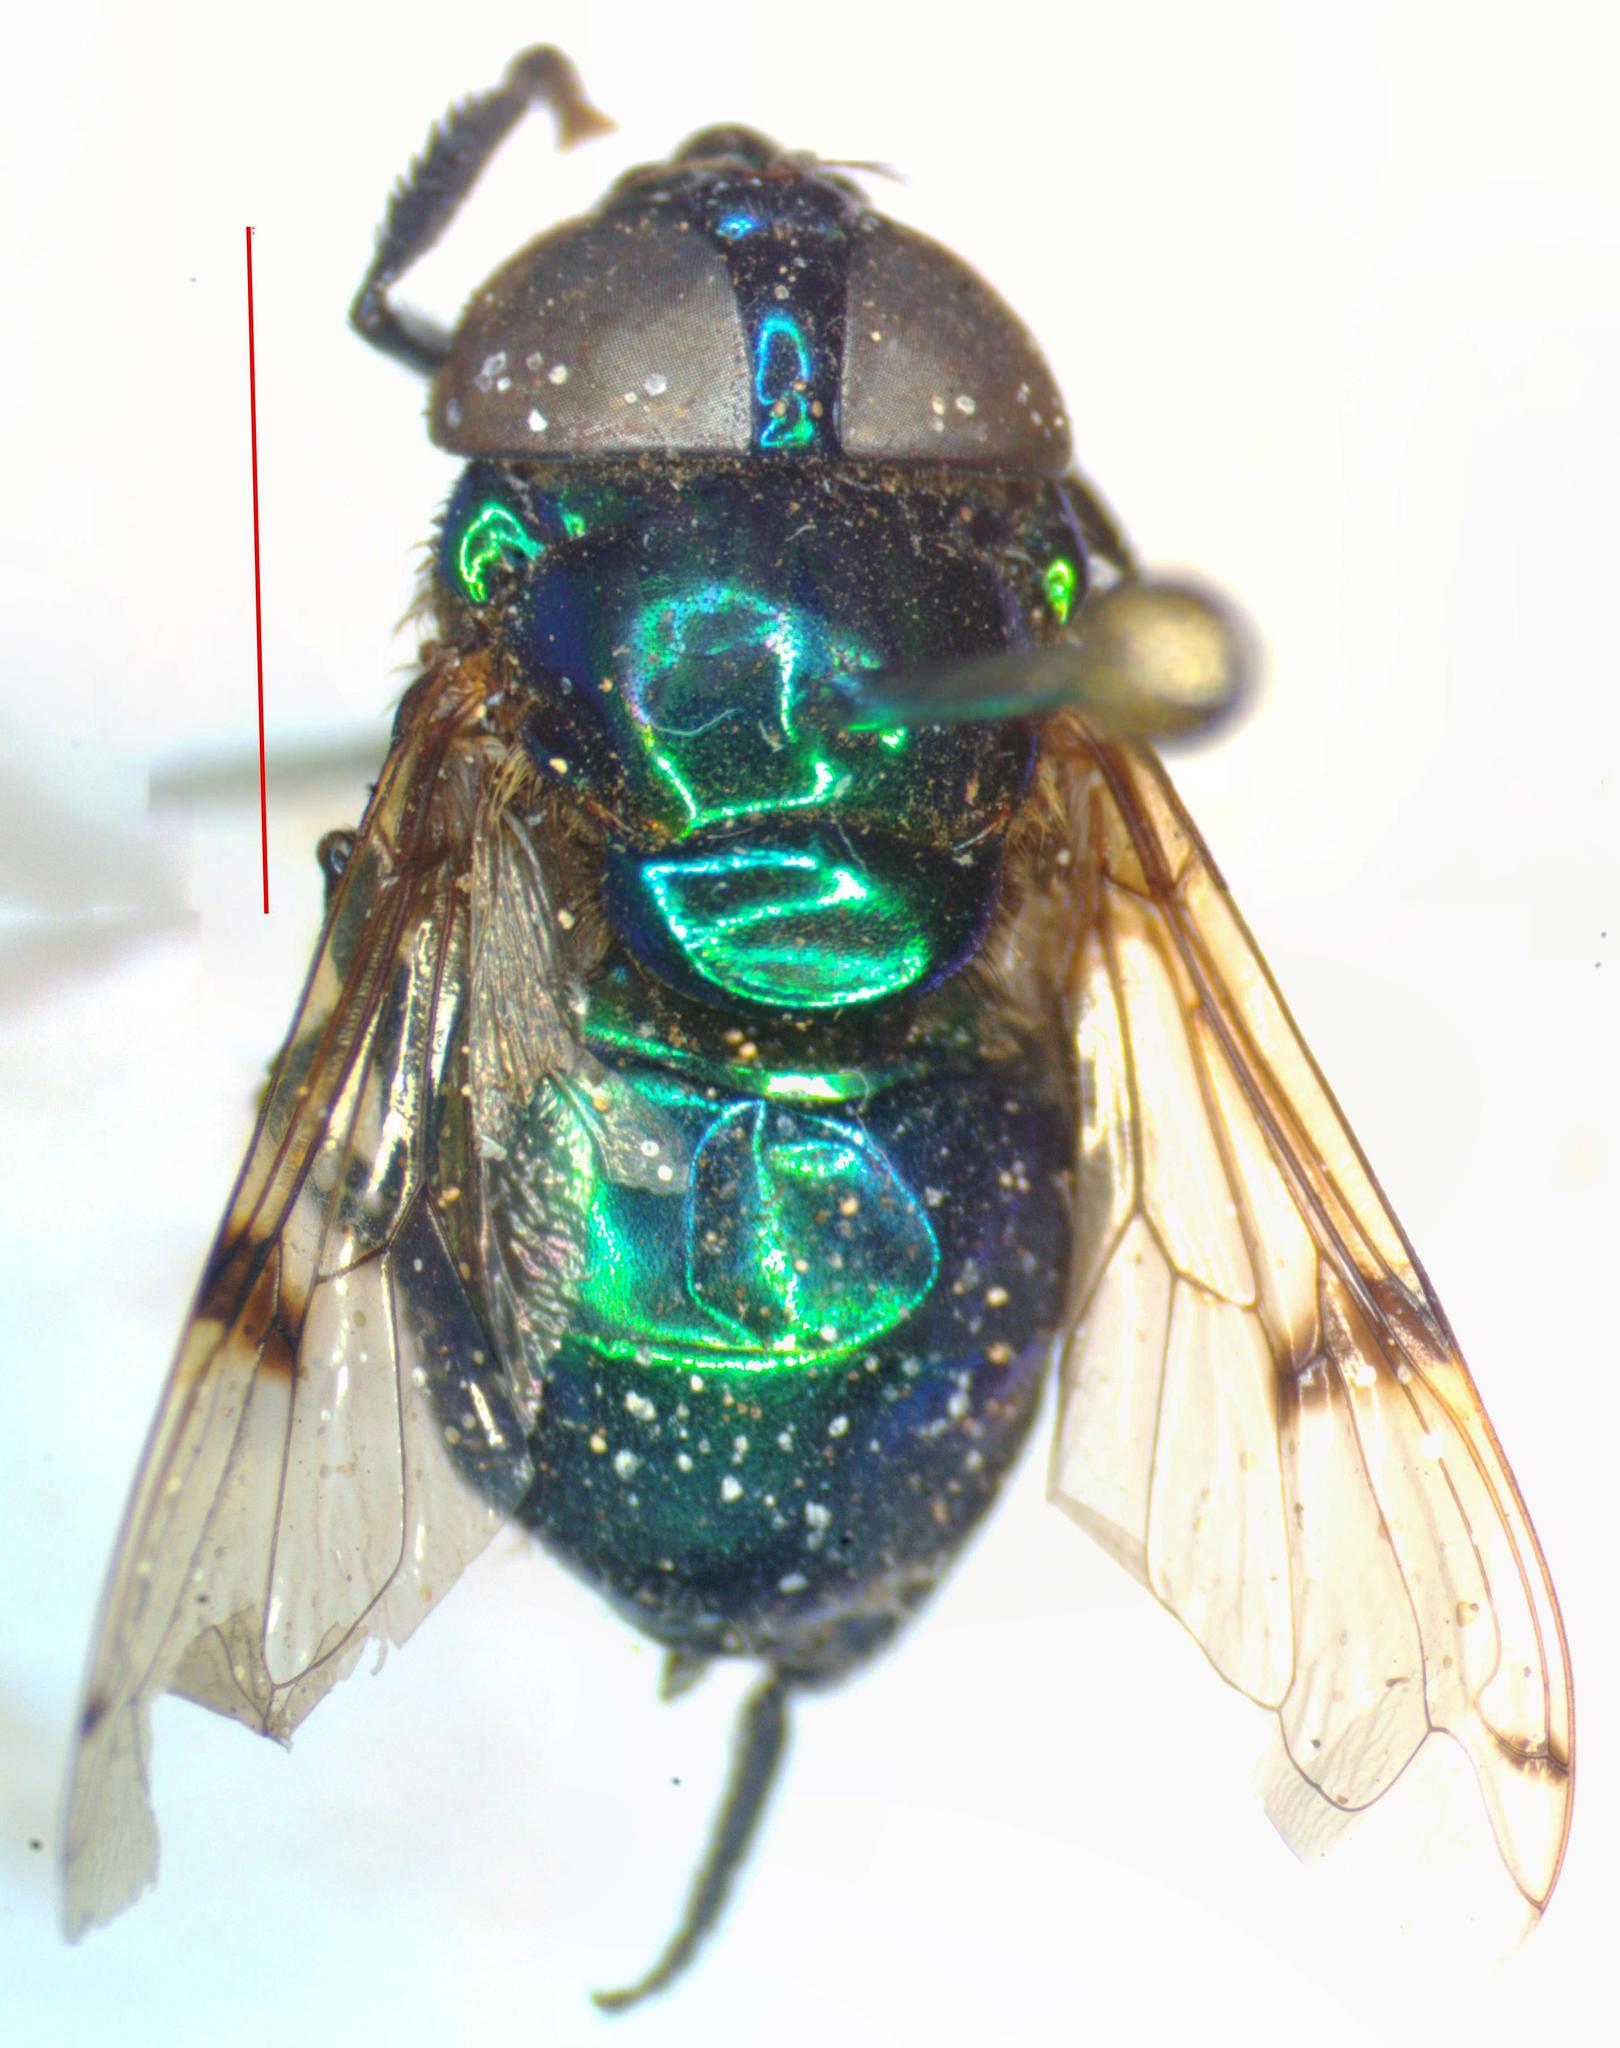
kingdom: Animalia
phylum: Arthropoda
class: Insecta
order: Diptera
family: Syrphidae
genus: Ornidia
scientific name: Ornidia obesa
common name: Syrphid fly
